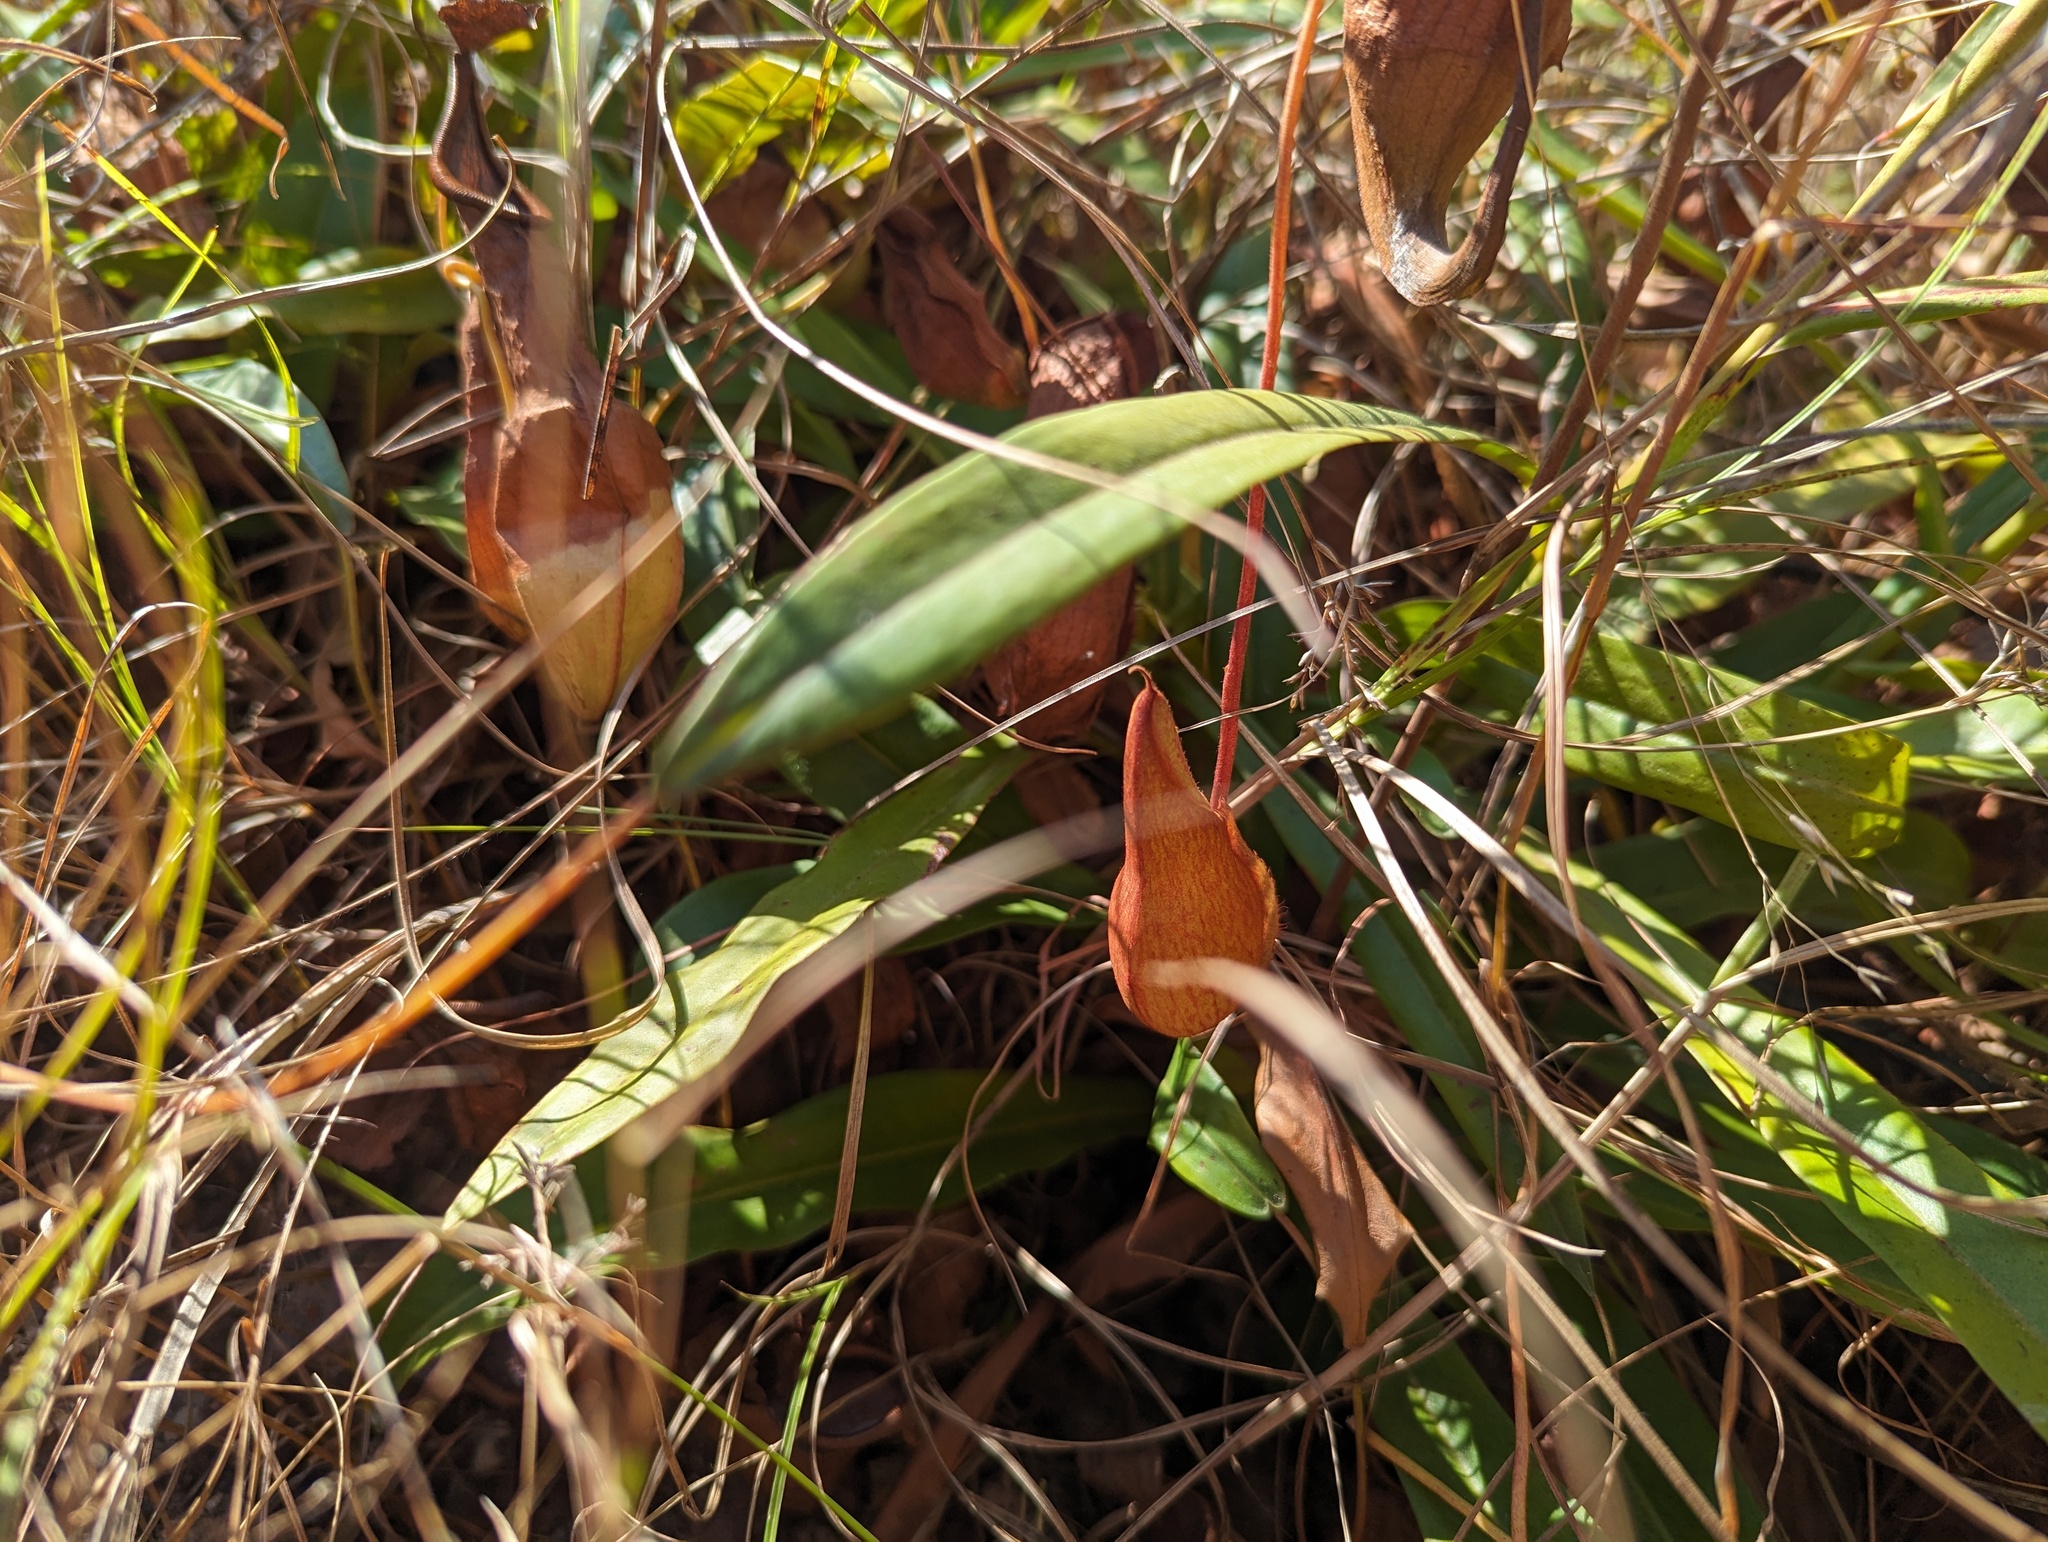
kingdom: Plantae
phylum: Tracheophyta
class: Magnoliopsida
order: Caryophyllales
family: Nepenthaceae
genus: Nepenthes
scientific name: Nepenthes abalata
